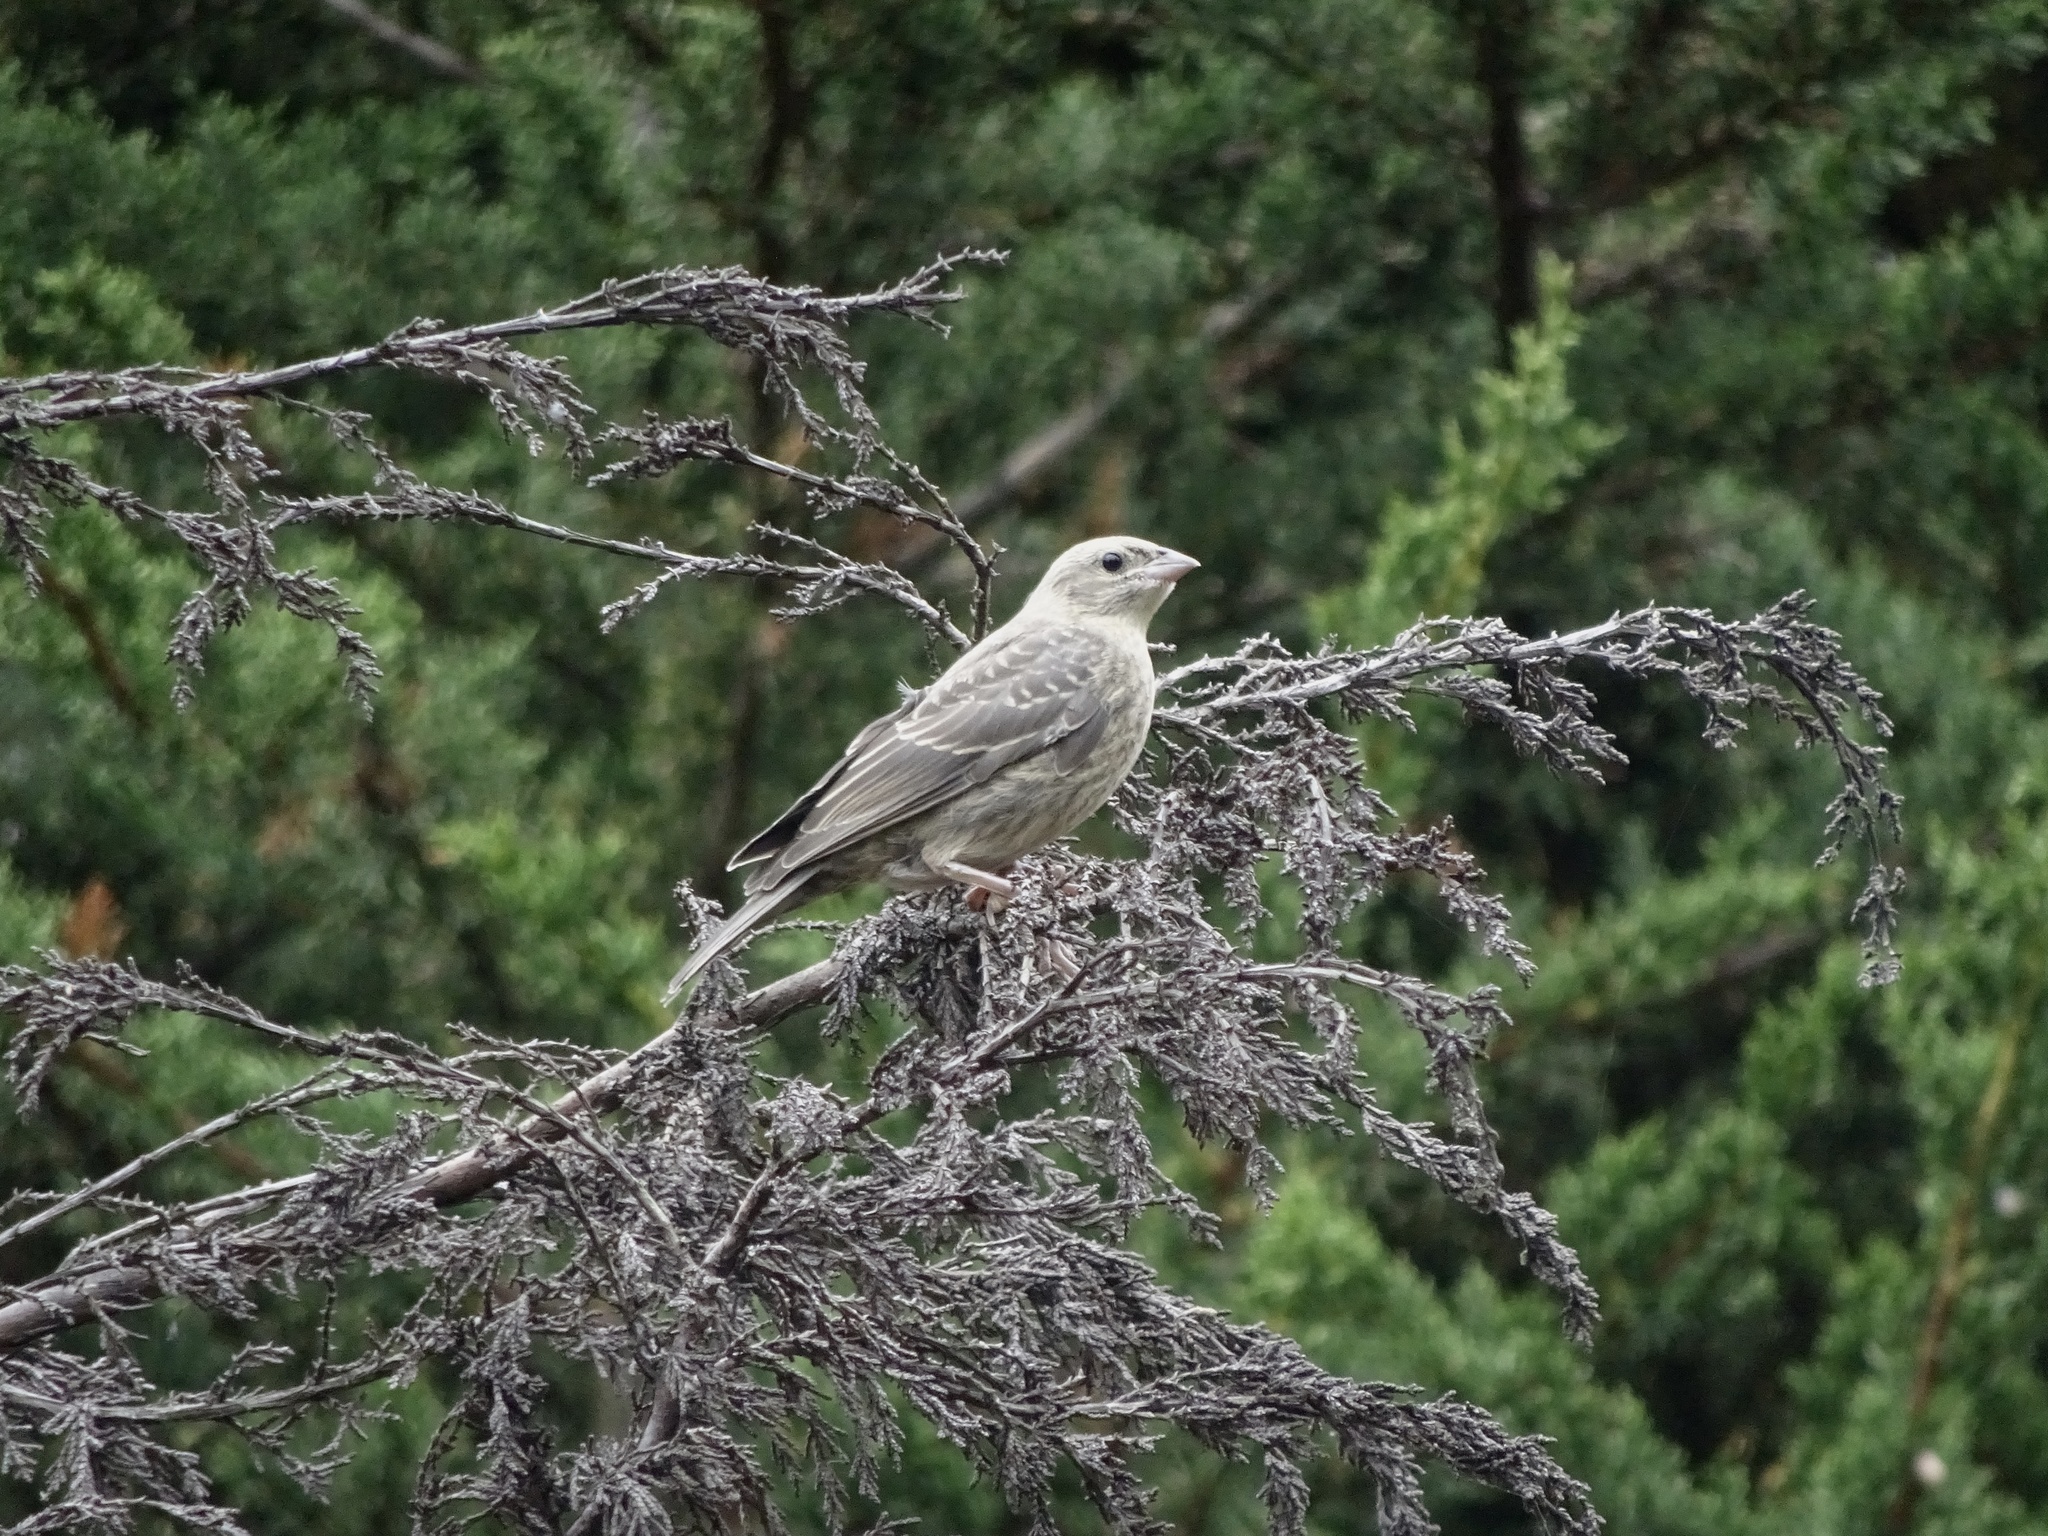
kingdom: Animalia
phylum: Chordata
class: Aves
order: Passeriformes
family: Icteridae
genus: Molothrus
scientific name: Molothrus ater
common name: Brown-headed cowbird
